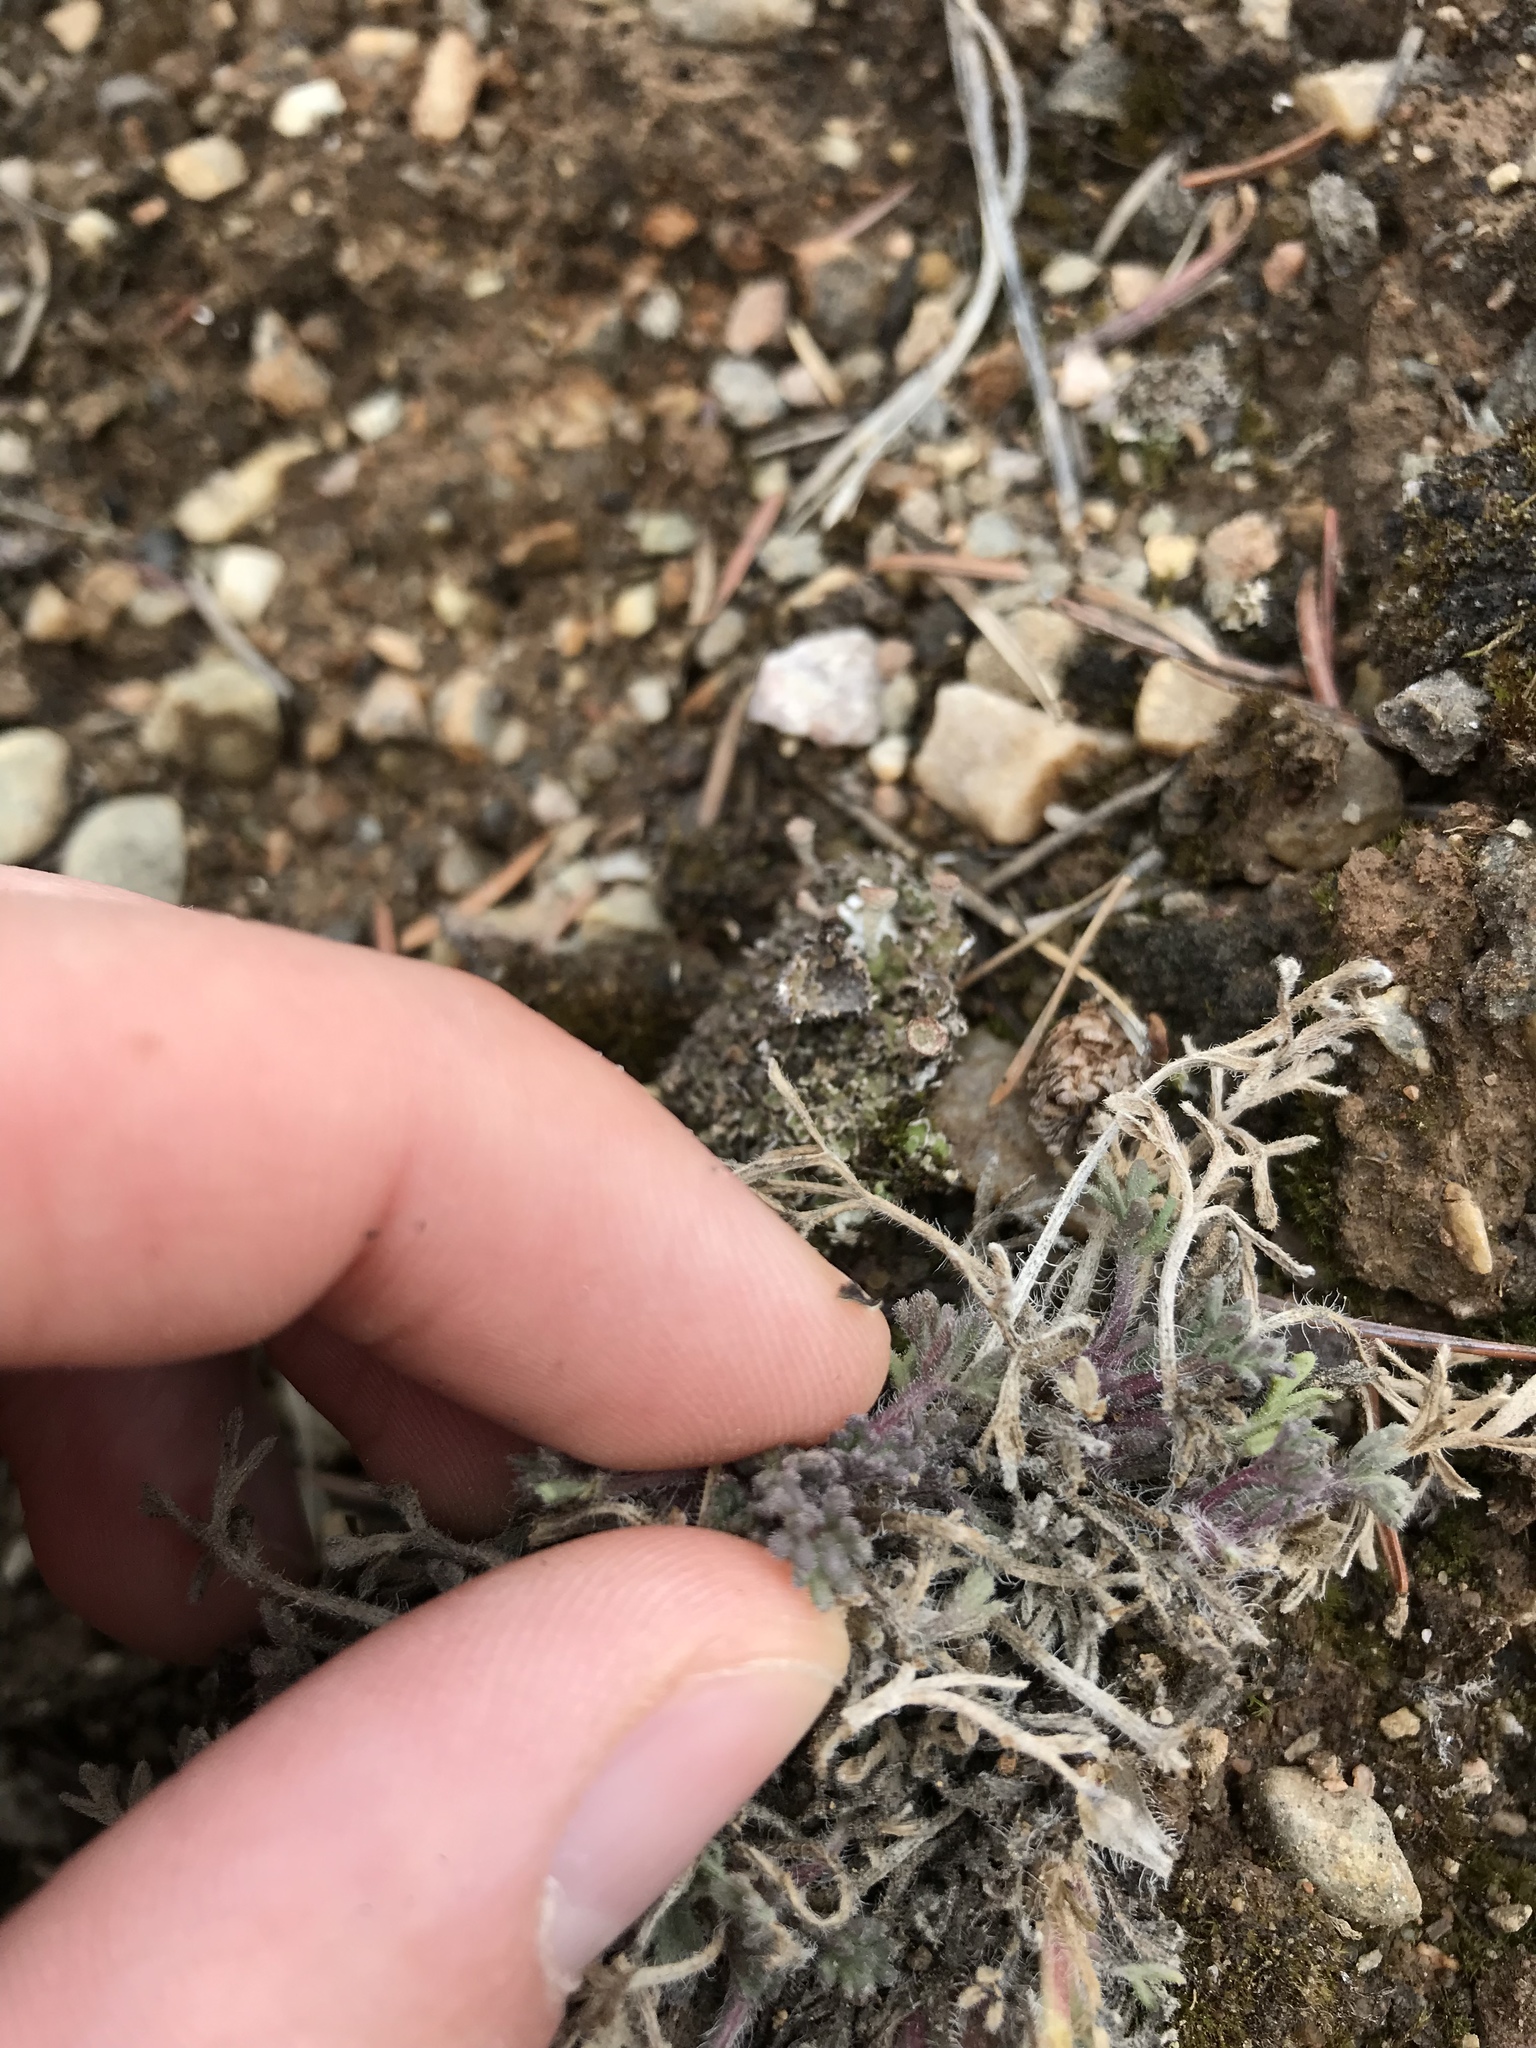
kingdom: Plantae
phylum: Tracheophyta
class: Magnoliopsida
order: Asterales
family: Asteraceae
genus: Erigeron
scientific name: Erigeron compositus
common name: Dwarf mountain fleabane
